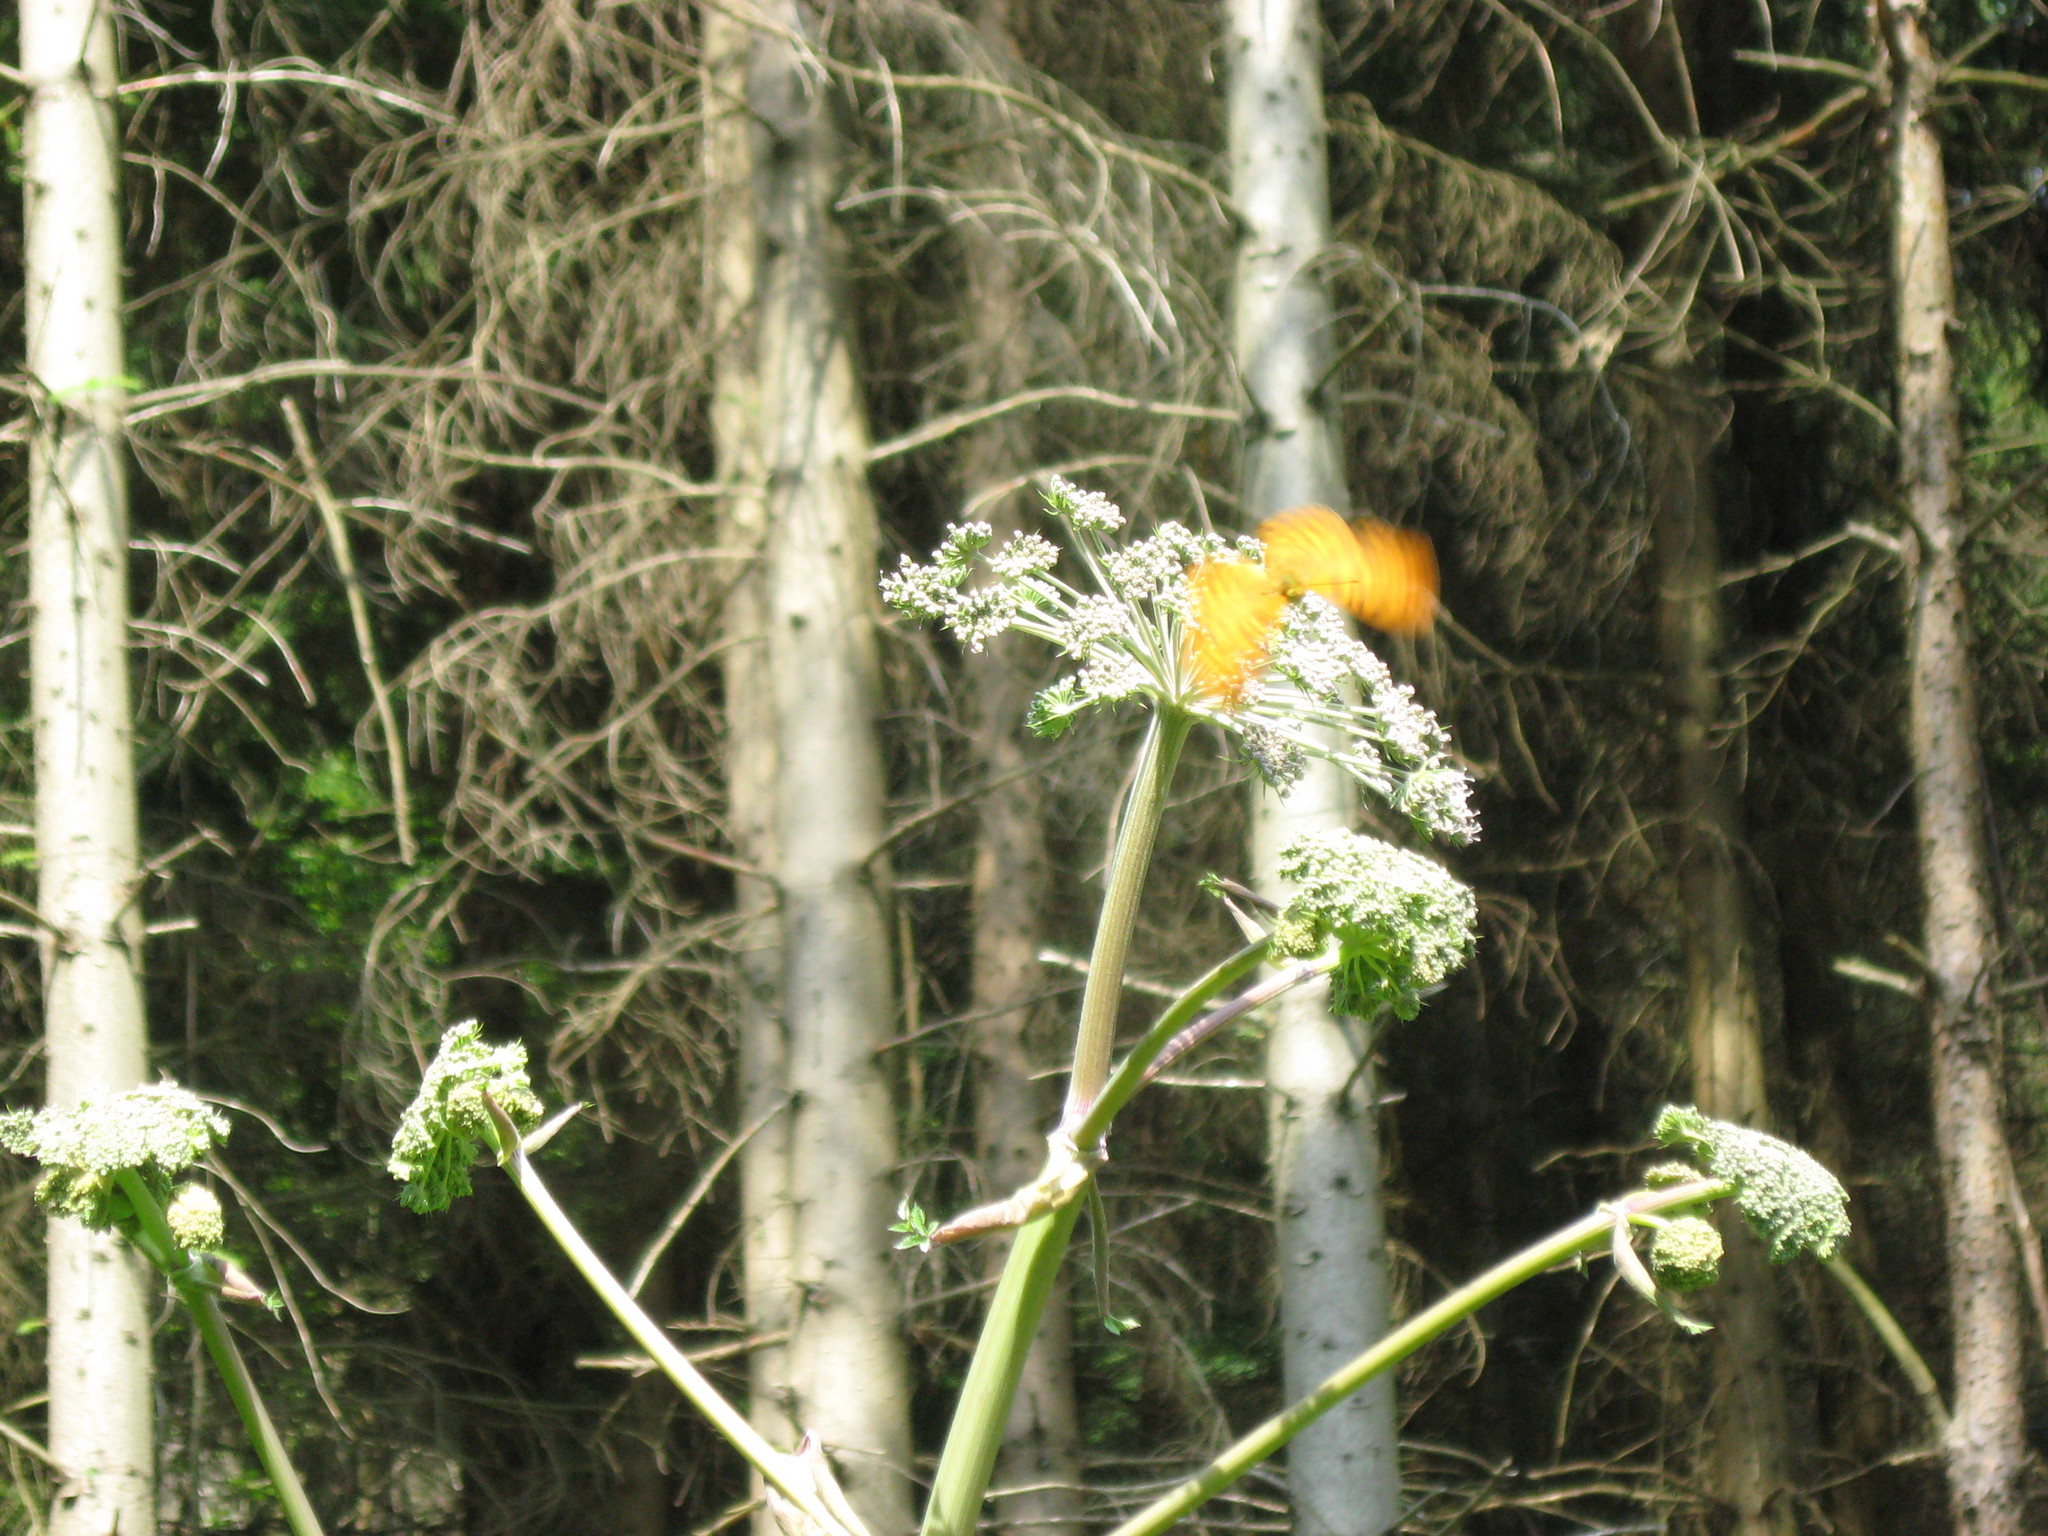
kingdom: Animalia
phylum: Arthropoda
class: Insecta
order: Lepidoptera
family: Nymphalidae
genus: Argynnis
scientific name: Argynnis paphia
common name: Silver-washed fritillary
